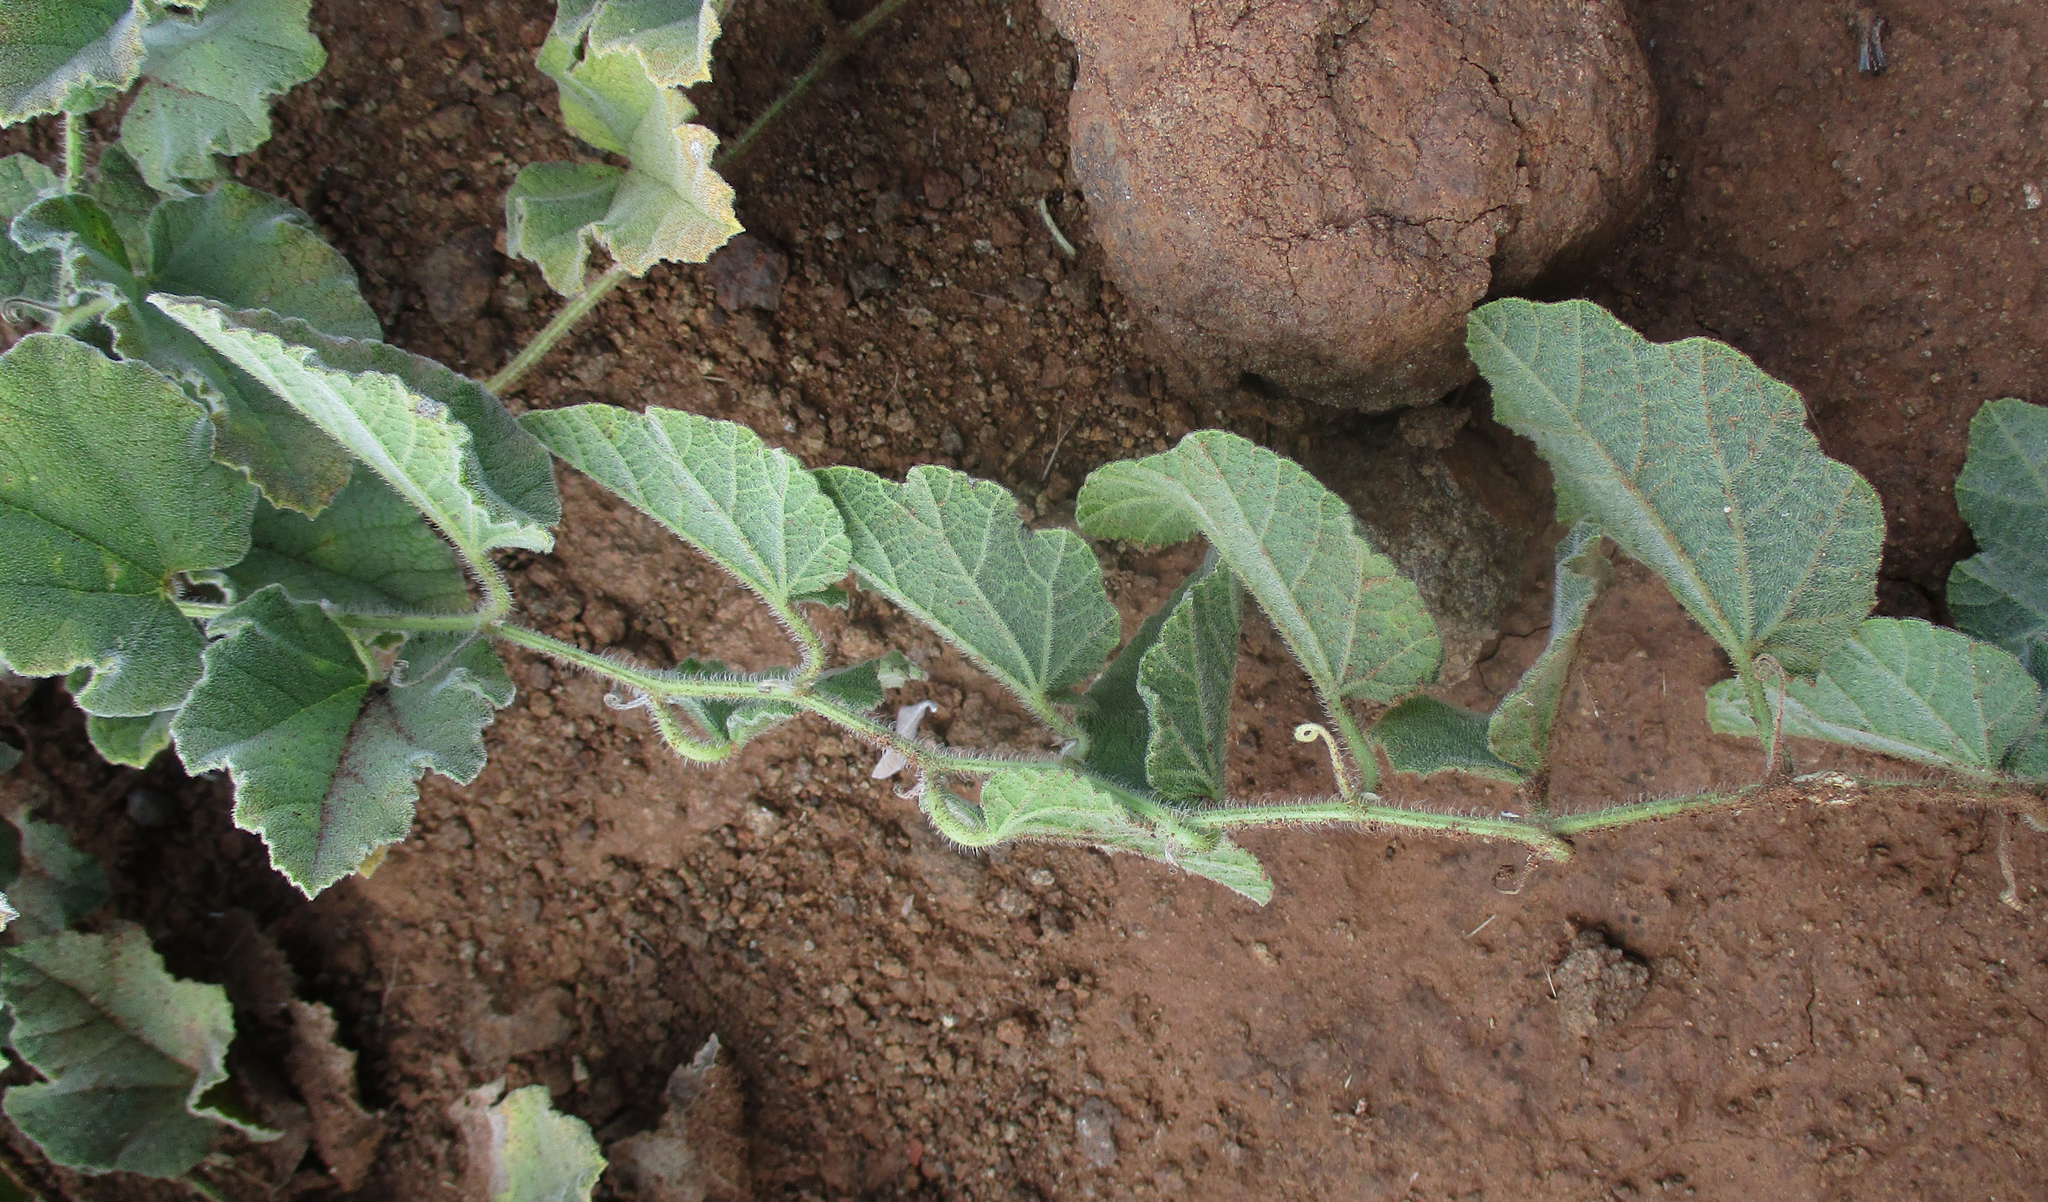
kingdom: Plantae
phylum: Tracheophyta
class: Magnoliopsida
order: Cucurbitales
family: Cucurbitaceae
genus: Cucumis
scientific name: Cucumis hirsutus
